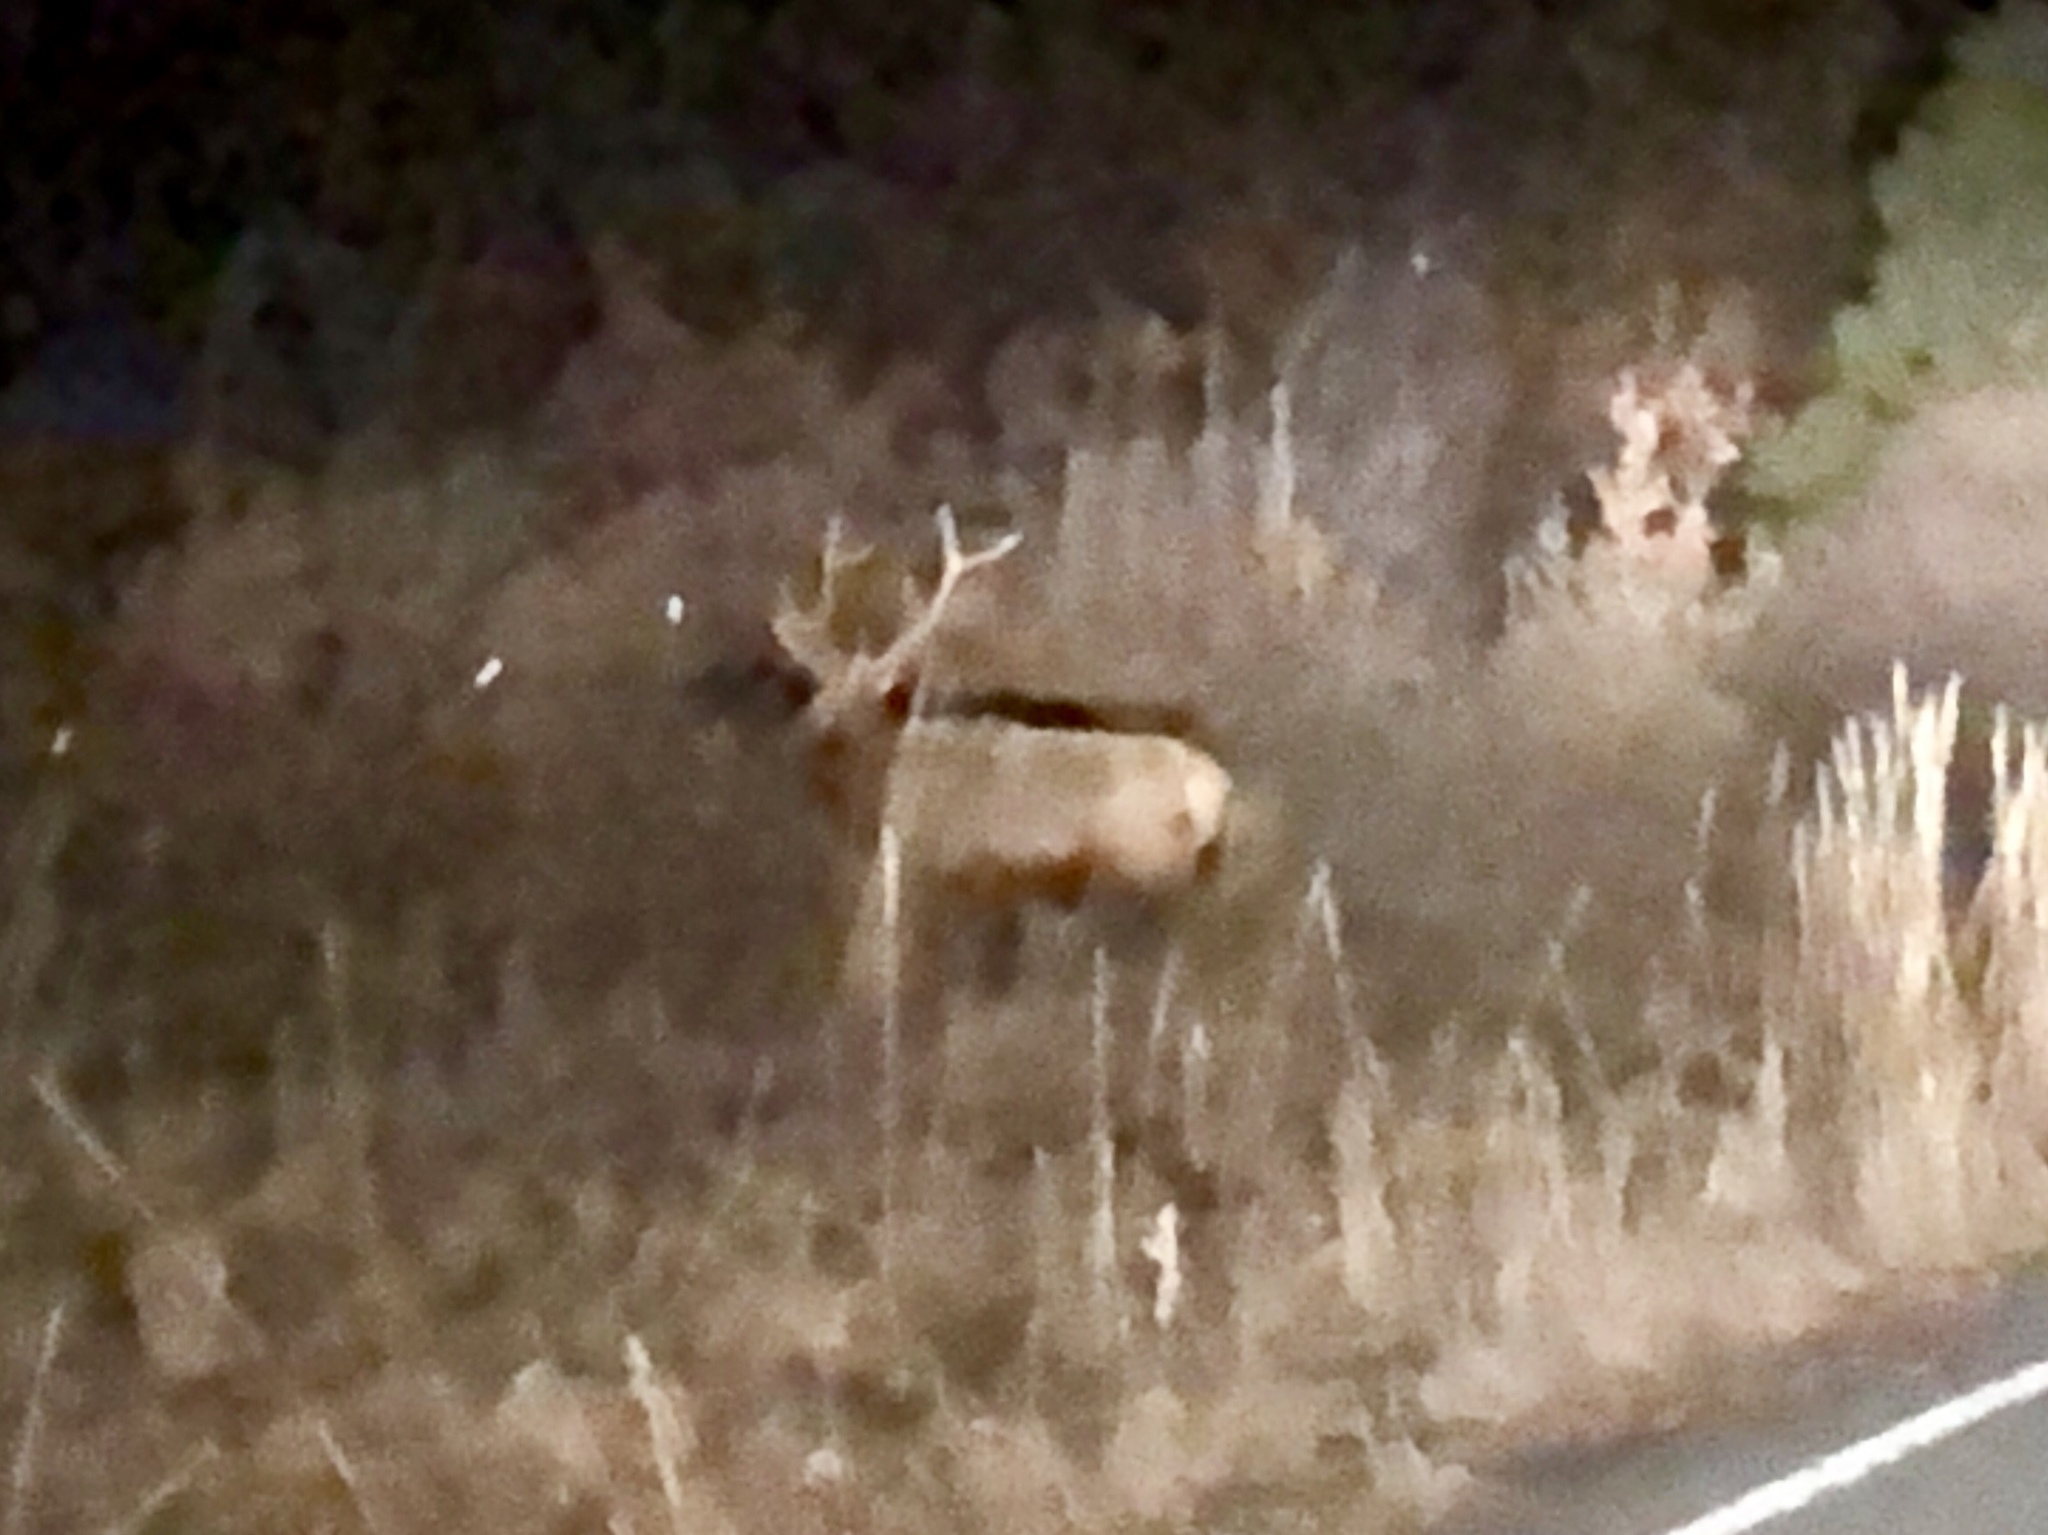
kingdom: Animalia
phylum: Chordata
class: Mammalia
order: Artiodactyla
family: Cervidae
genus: Cervus
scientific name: Cervus elaphus
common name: Red deer
